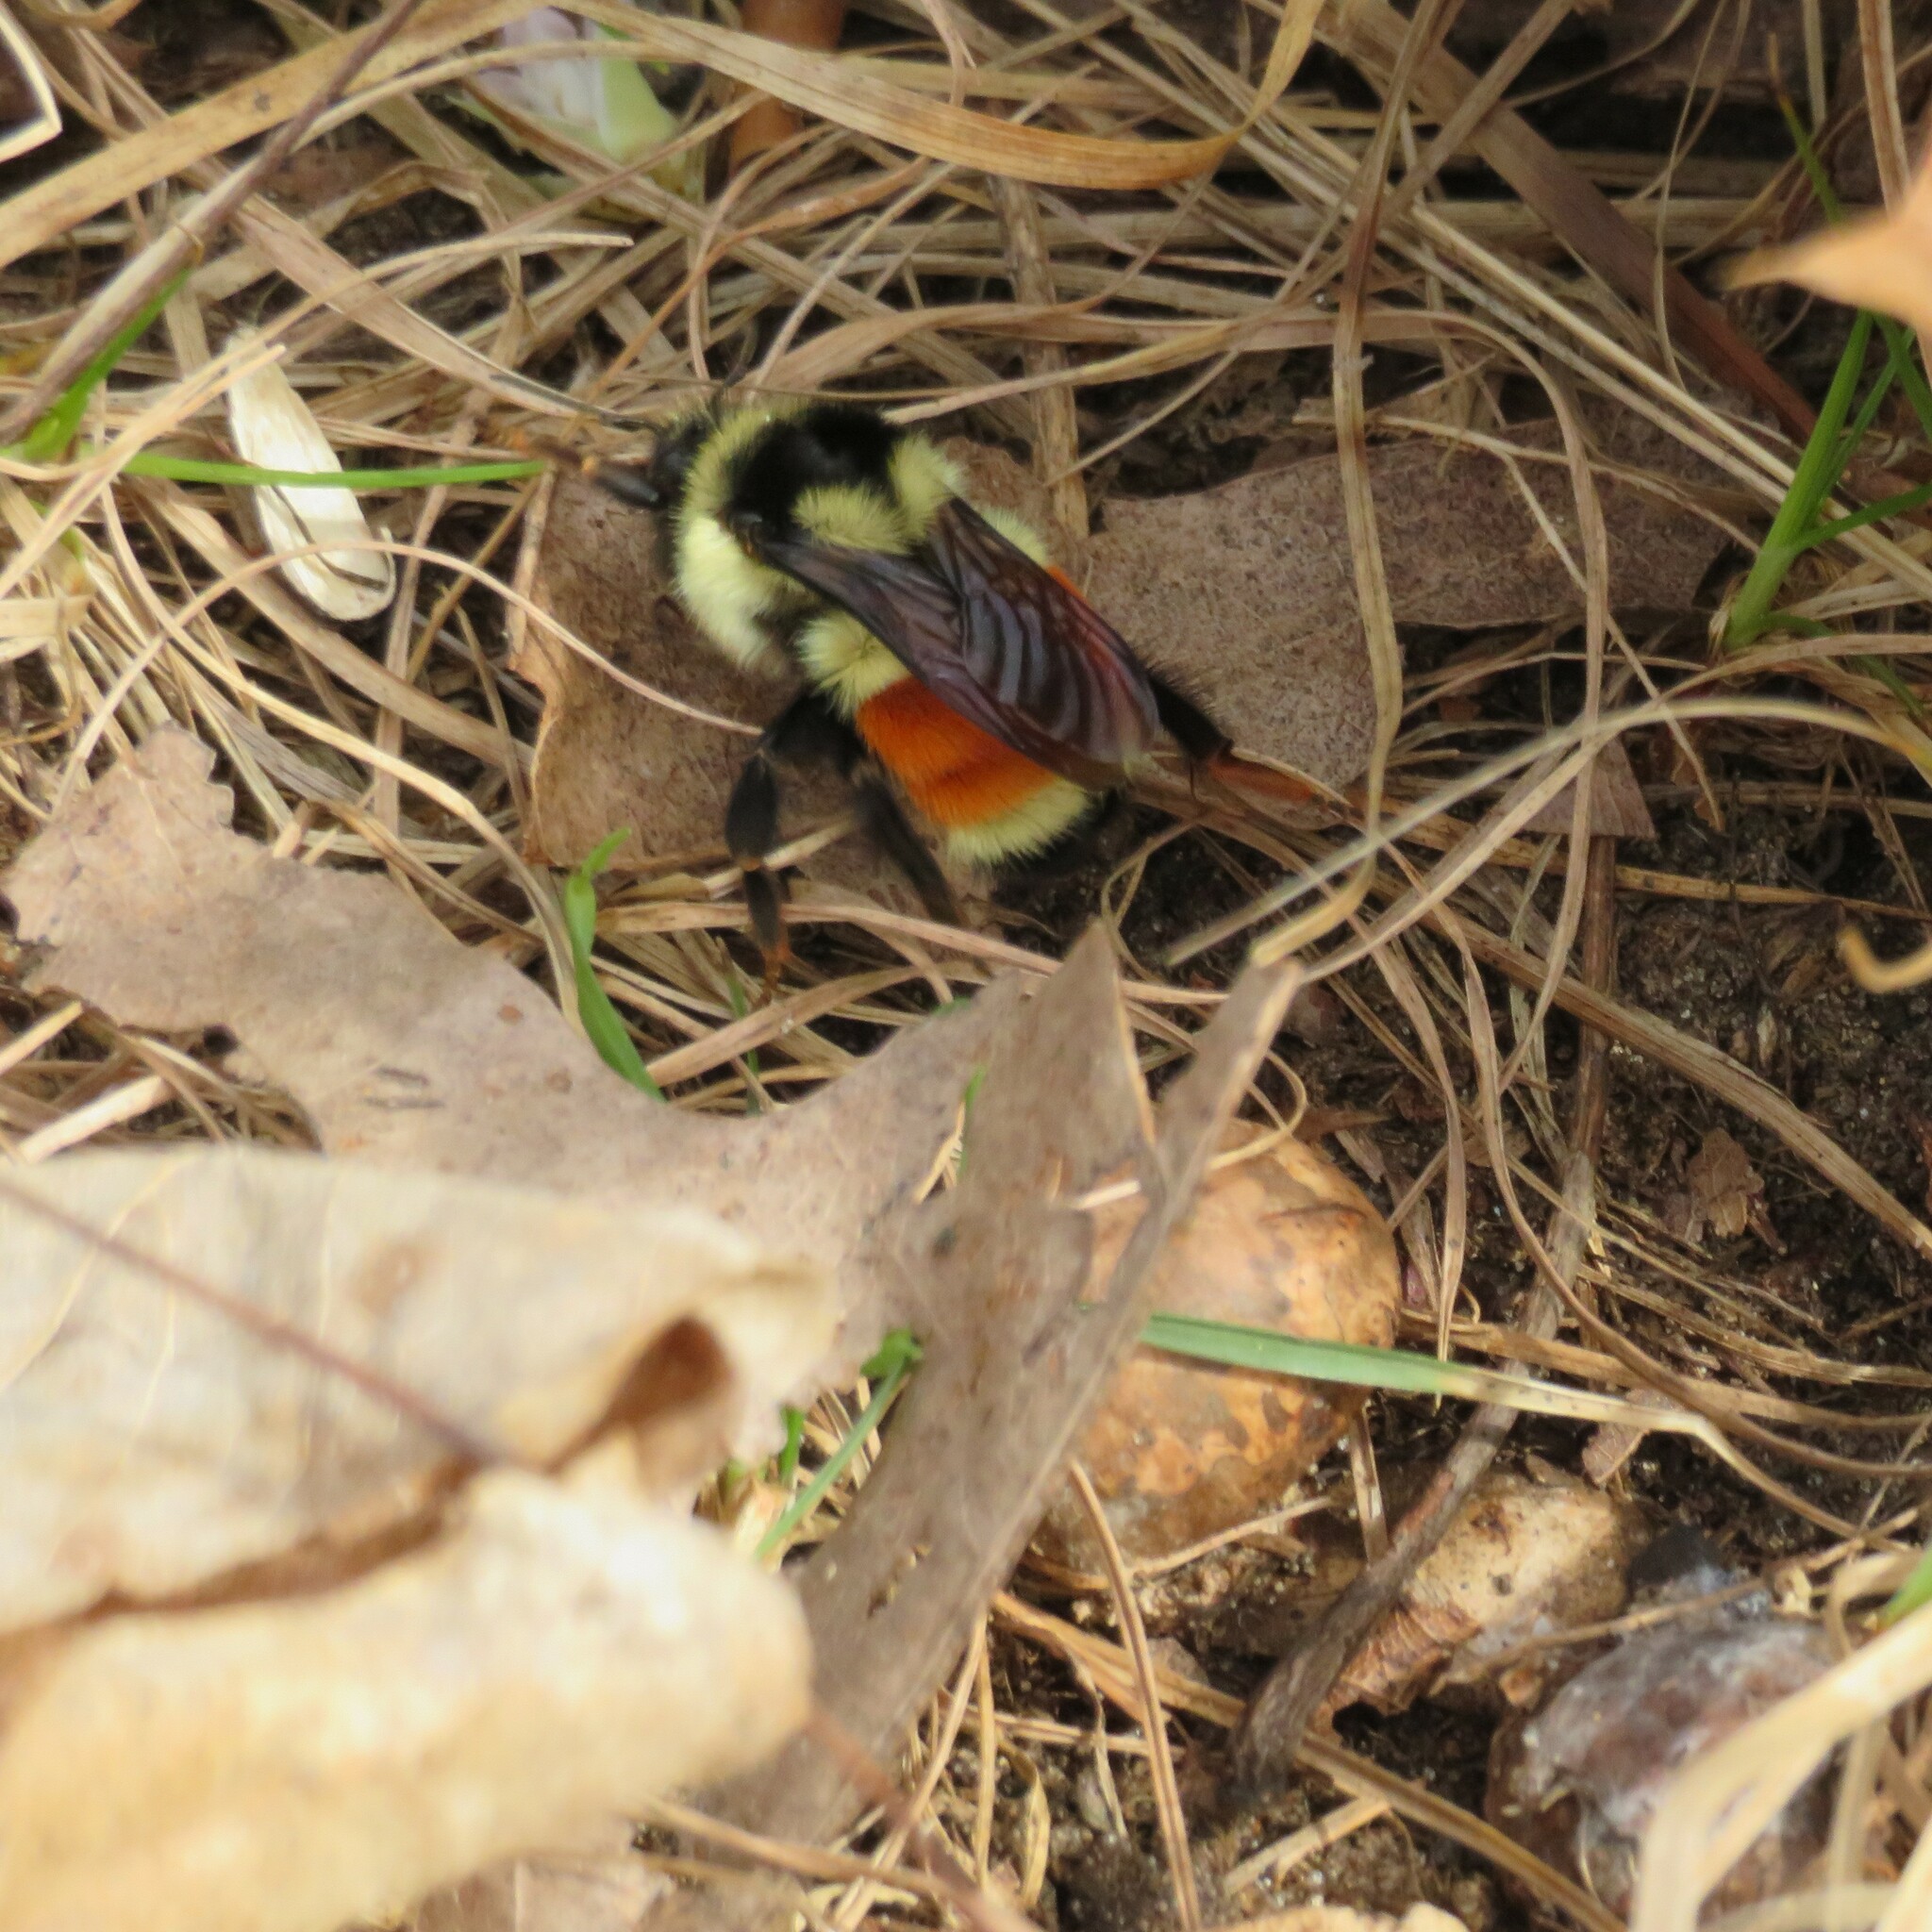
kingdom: Animalia
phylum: Arthropoda
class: Insecta
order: Hymenoptera
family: Apidae
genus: Bombus
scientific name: Bombus ternarius
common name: Tri-colored bumble bee
